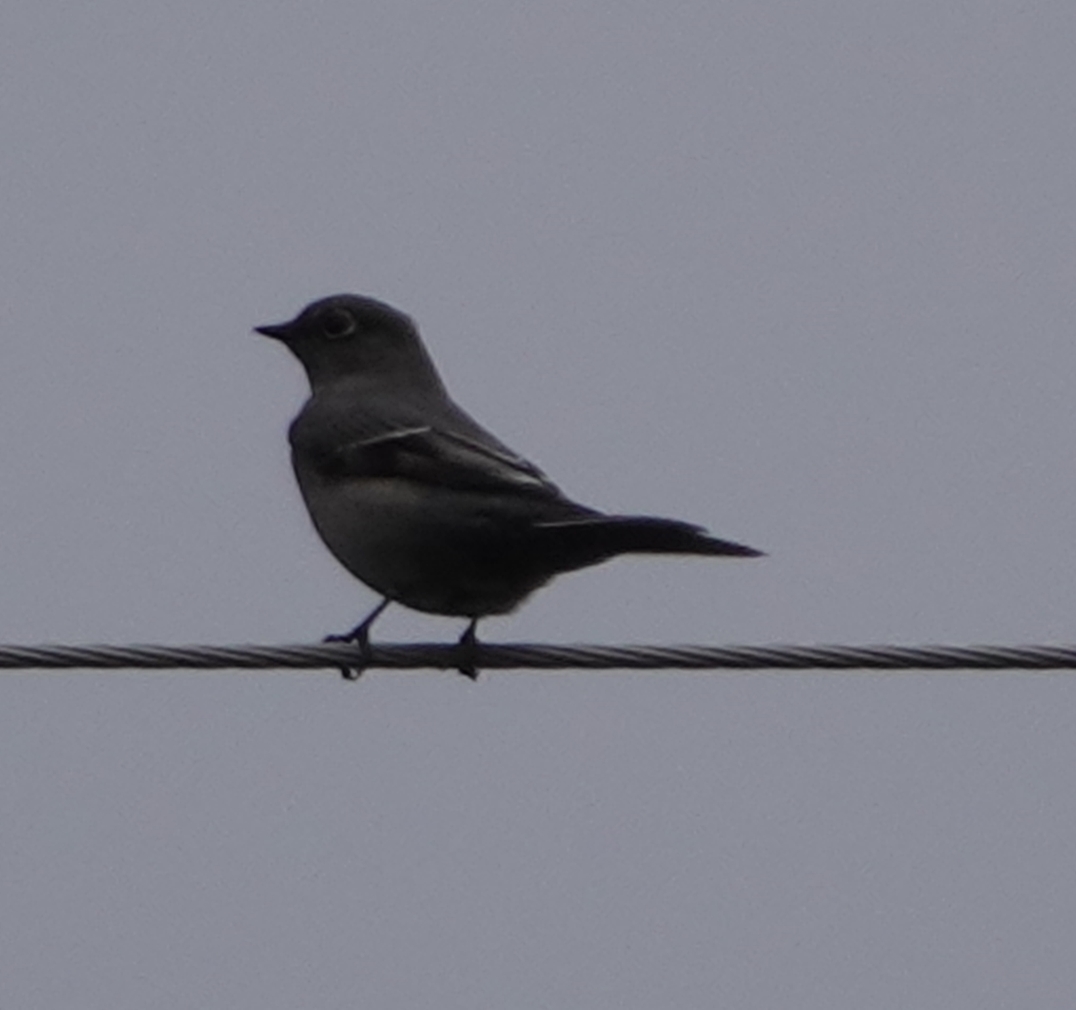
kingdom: Animalia
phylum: Chordata
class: Aves
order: Passeriformes
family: Turdidae
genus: Myadestes
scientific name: Myadestes townsendi
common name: Townsend's solitaire
